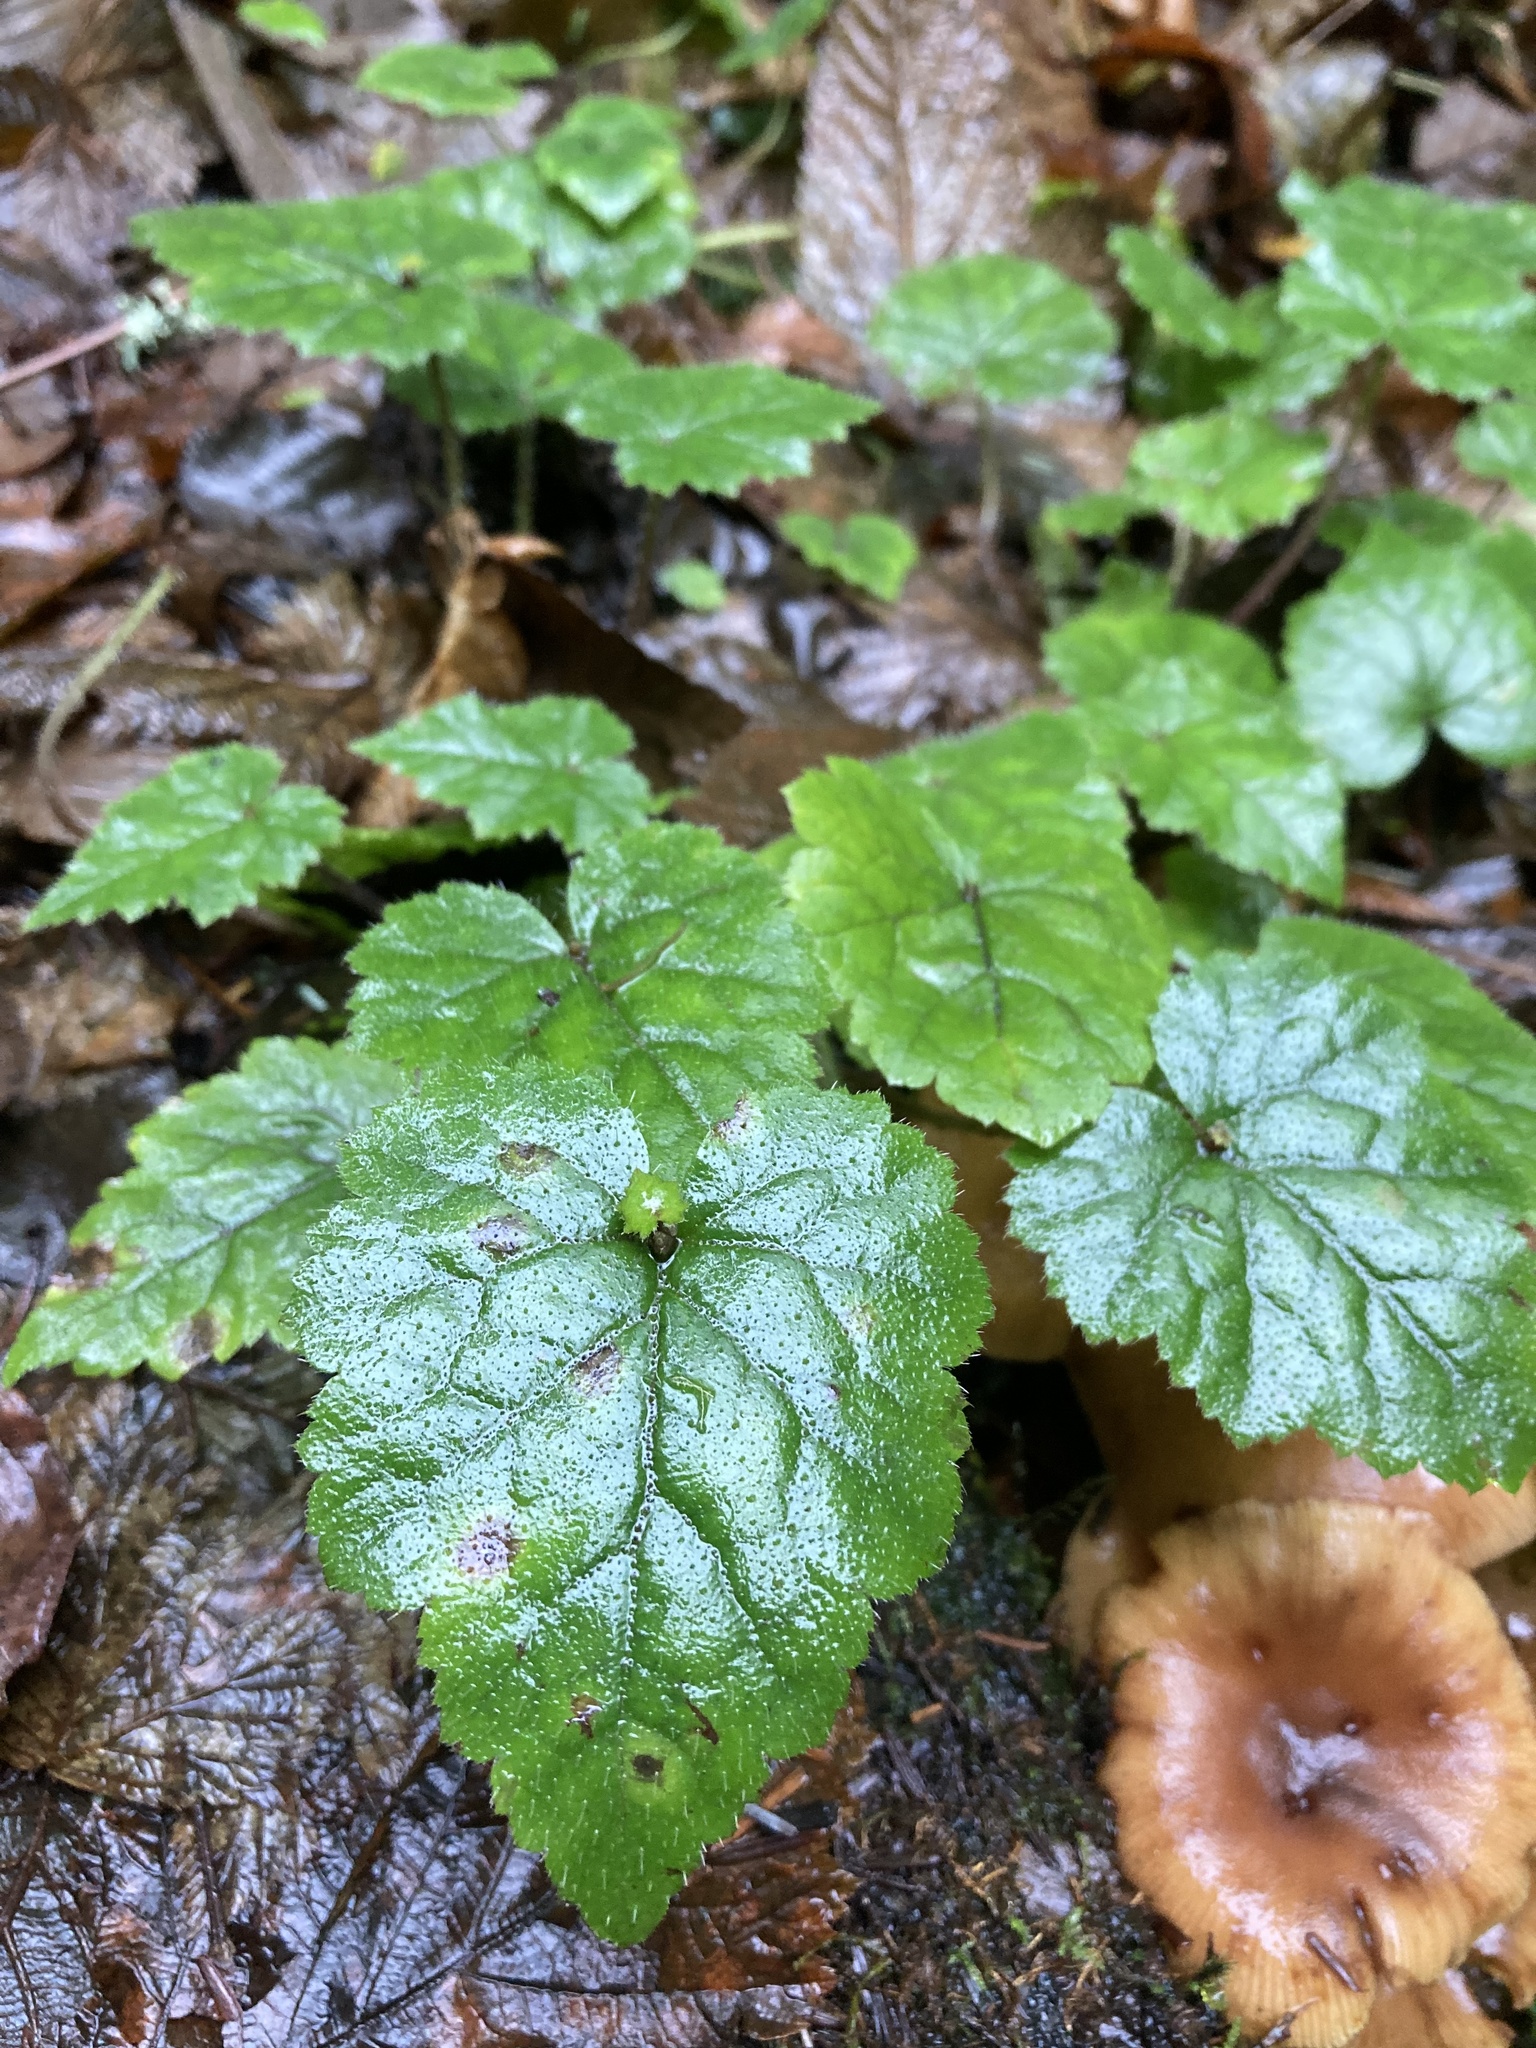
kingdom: Plantae
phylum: Tracheophyta
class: Magnoliopsida
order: Saxifragales
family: Saxifragaceae
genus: Tolmiea
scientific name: Tolmiea menziesii
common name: Pick-a-back-plant
